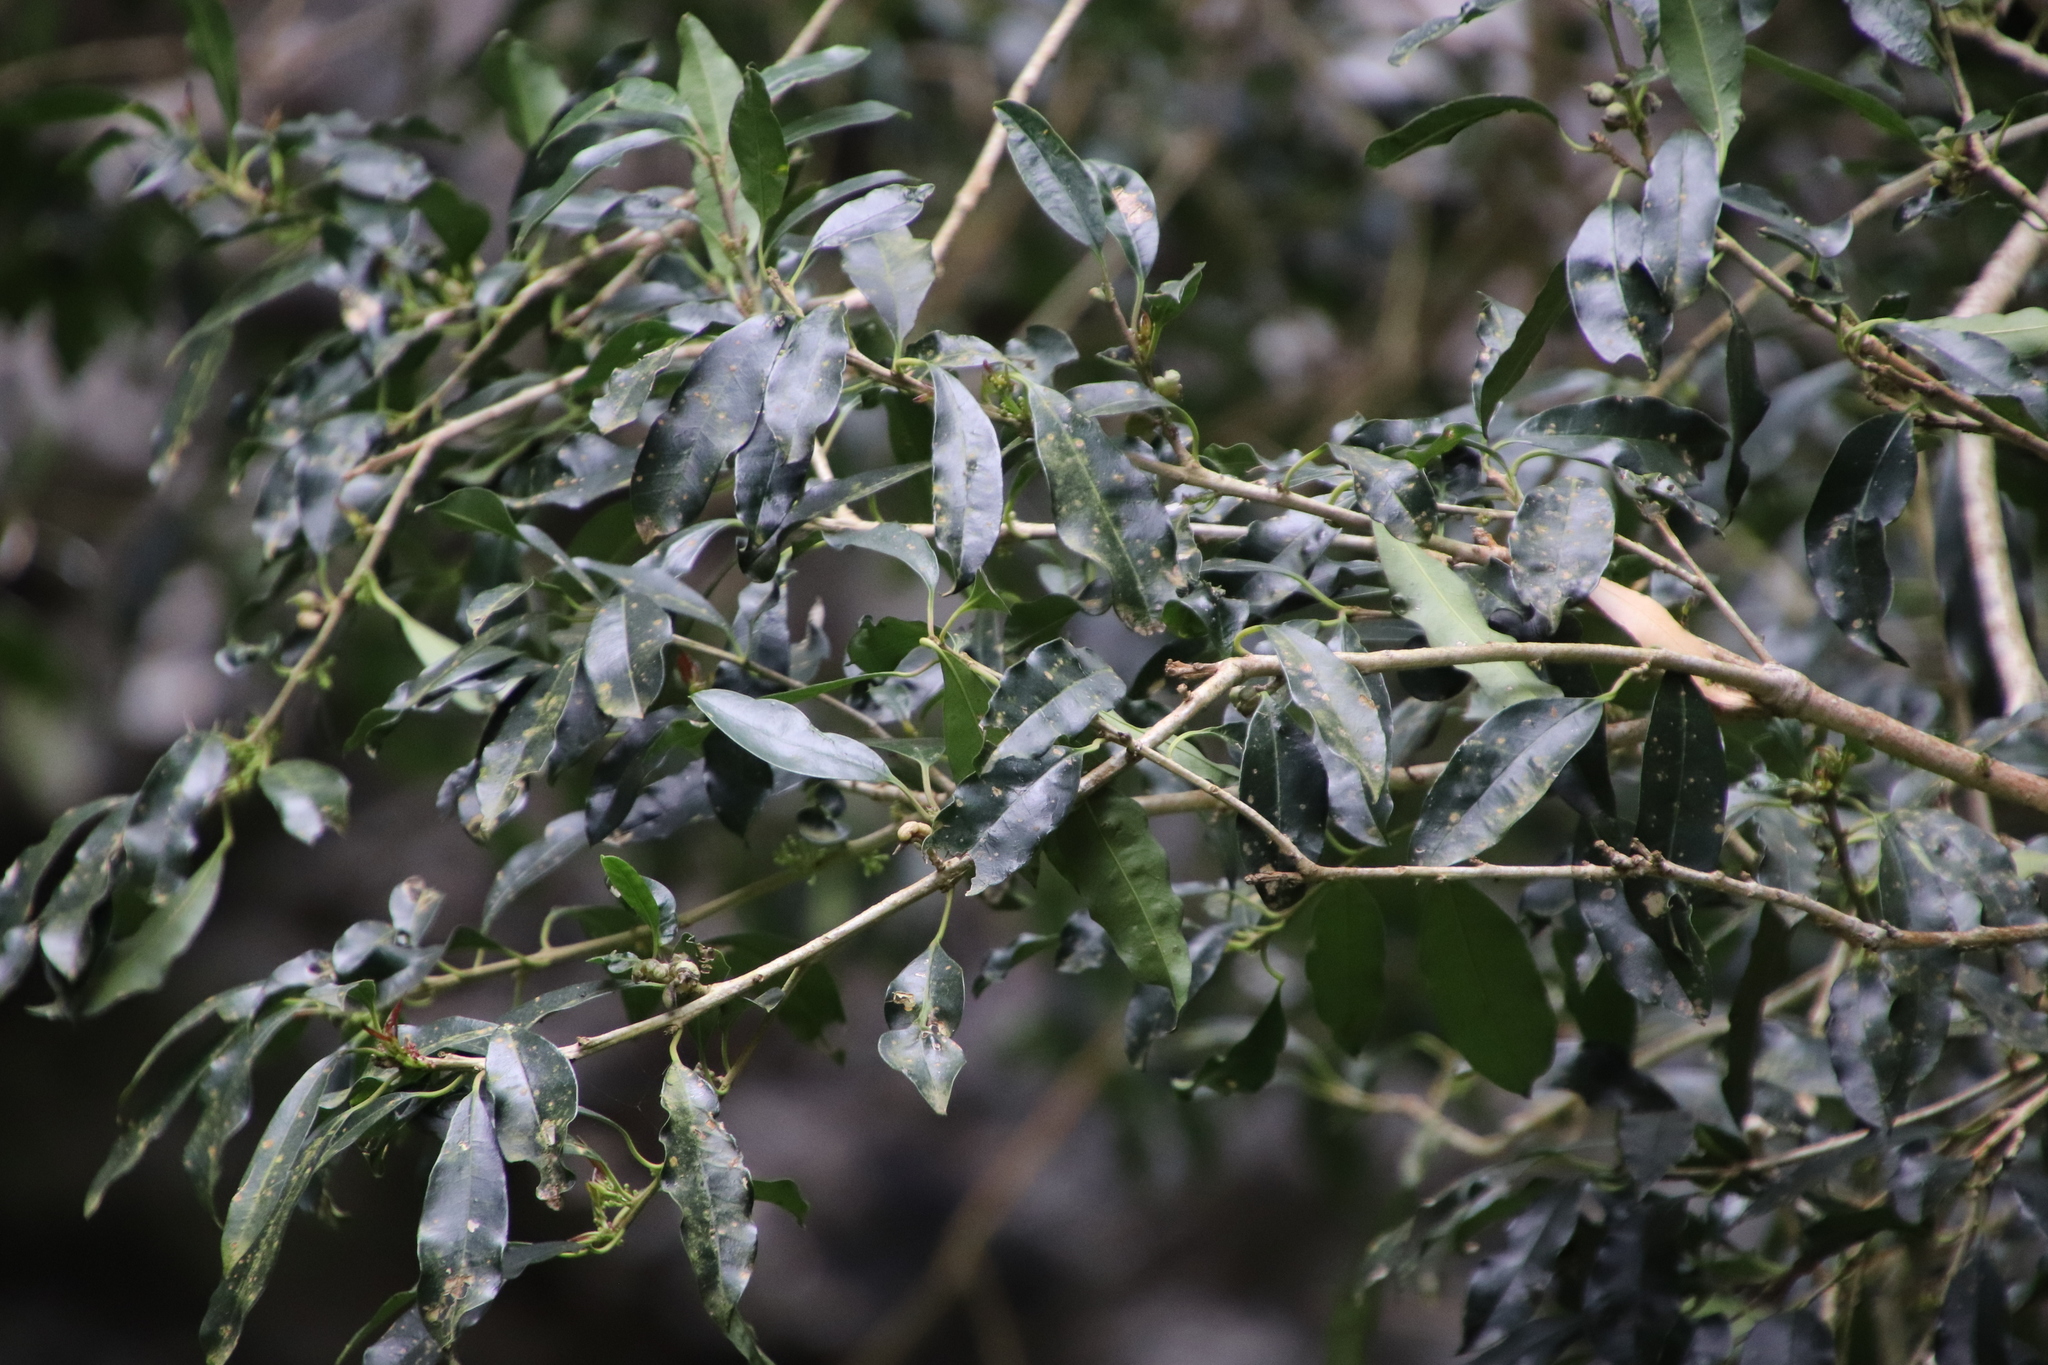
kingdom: Plantae
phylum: Tracheophyta
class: Magnoliopsida
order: Aquifoliales
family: Aquifoliaceae
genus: Ilex
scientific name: Ilex mitis
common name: African holly
